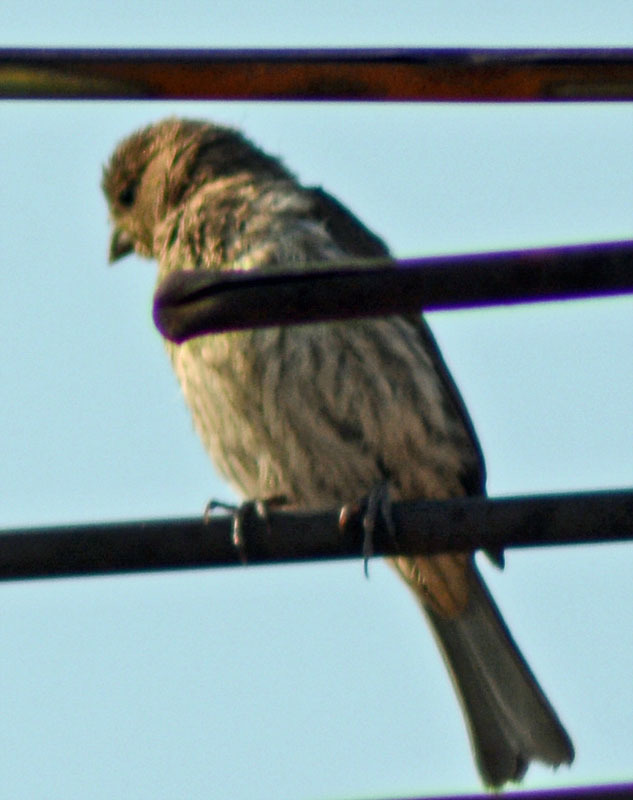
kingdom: Animalia
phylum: Chordata
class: Aves
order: Passeriformes
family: Fringillidae
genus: Haemorhous
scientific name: Haemorhous mexicanus
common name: House finch
